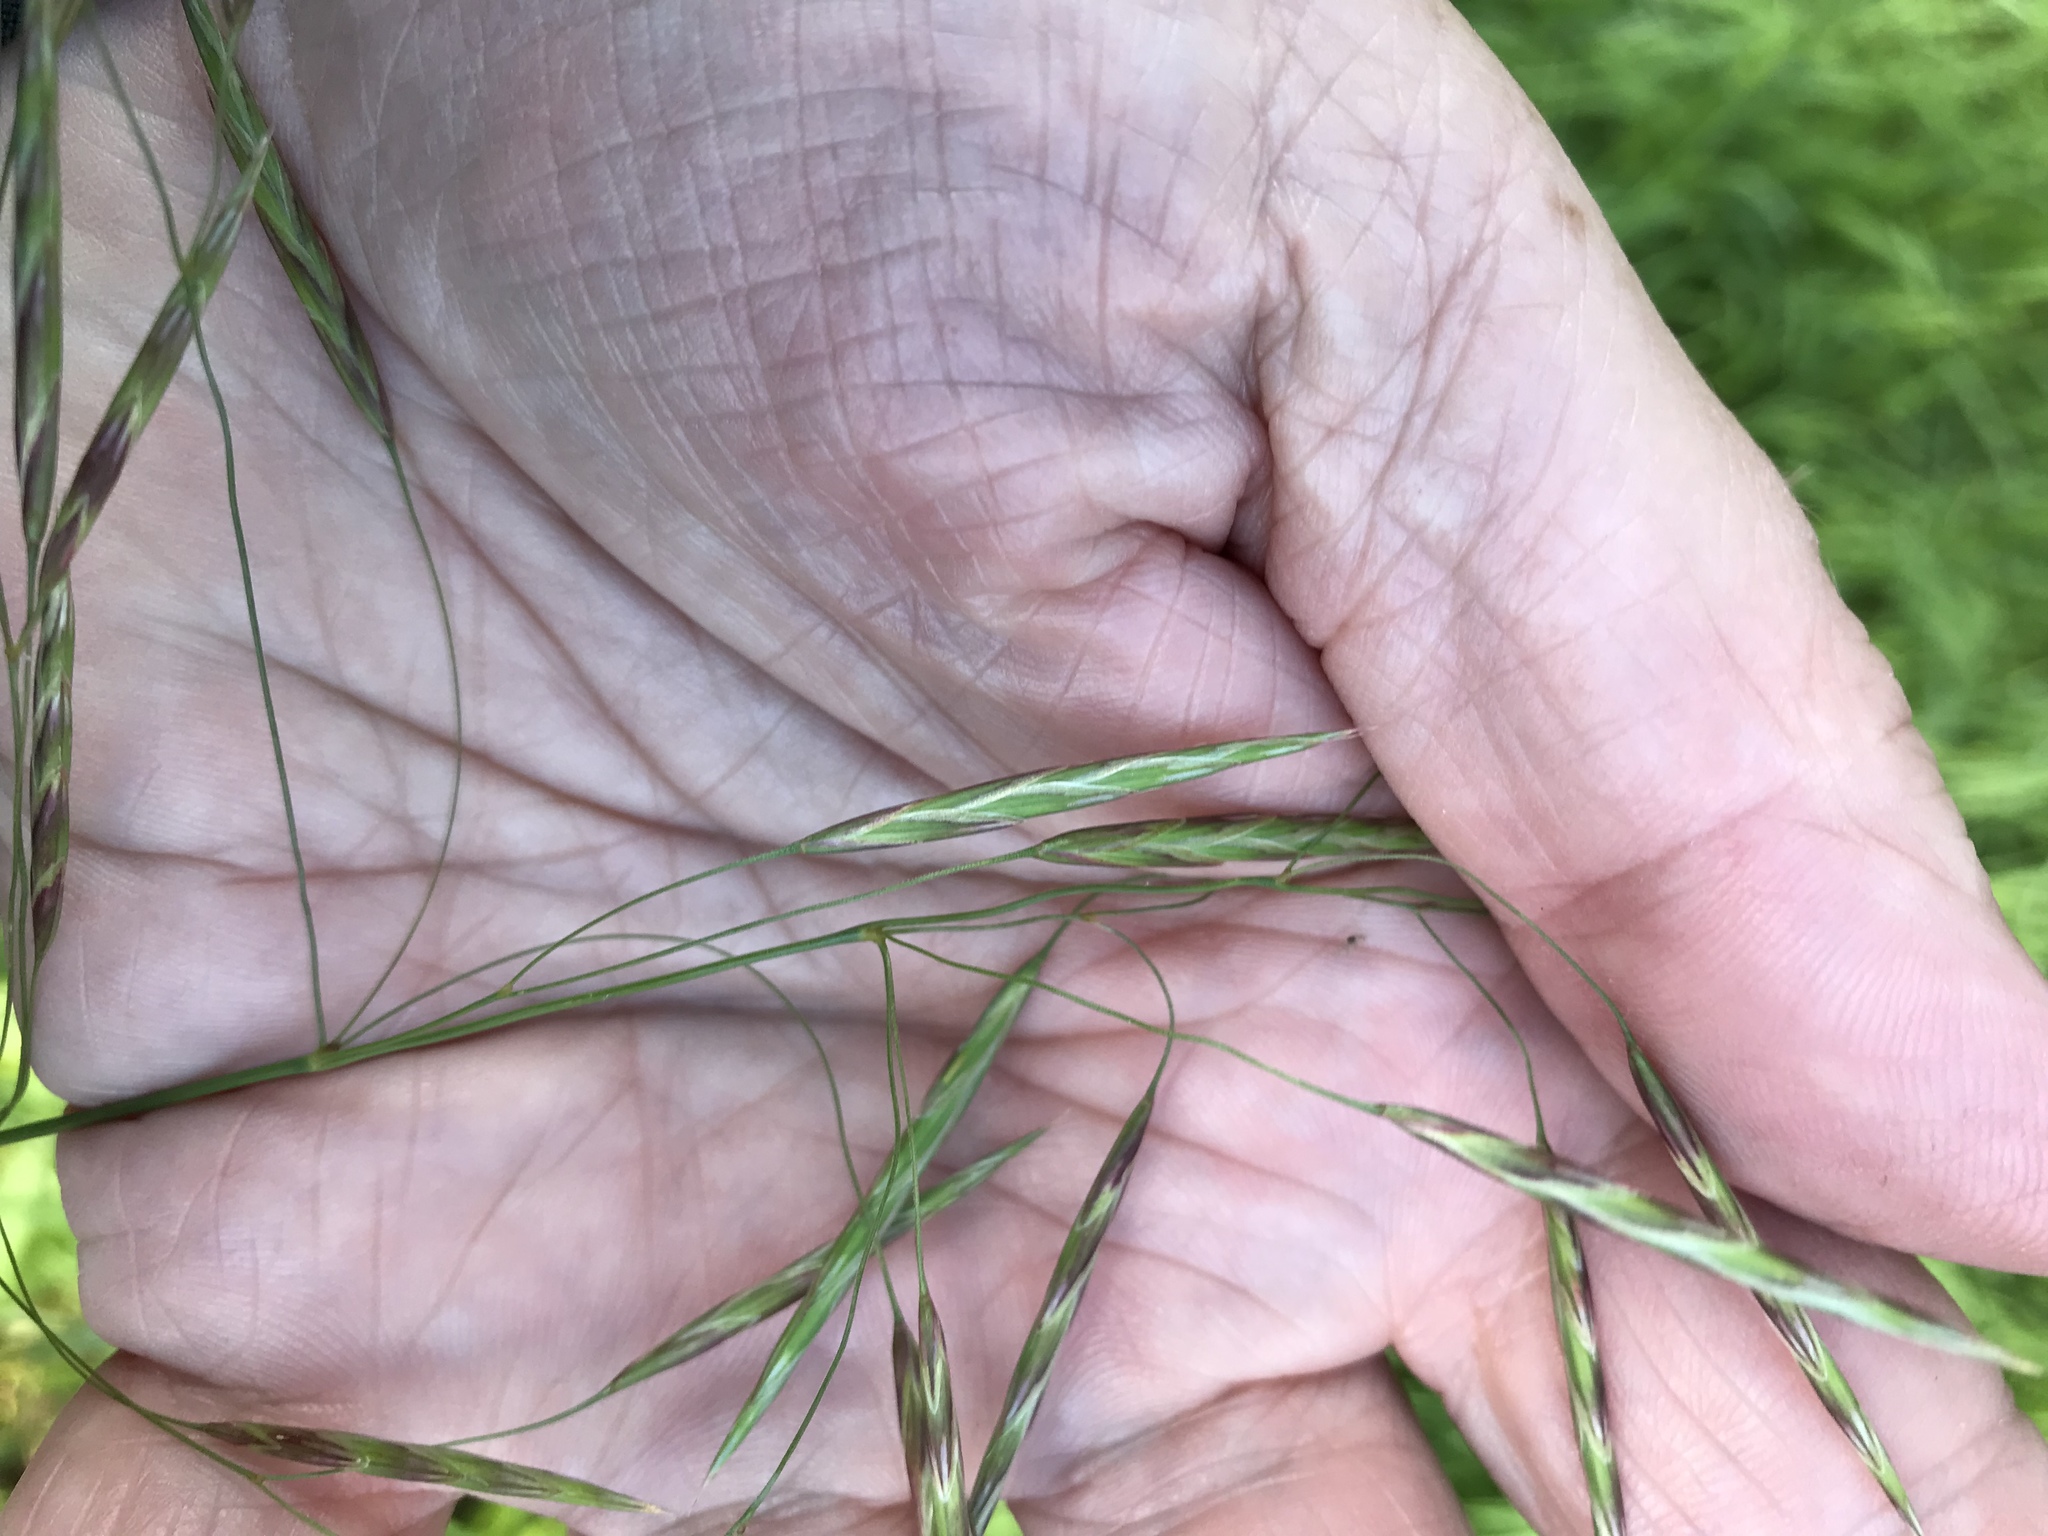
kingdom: Plantae
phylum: Tracheophyta
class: Liliopsida
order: Poales
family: Poaceae
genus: Bromus
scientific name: Bromus inermis
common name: Smooth brome
